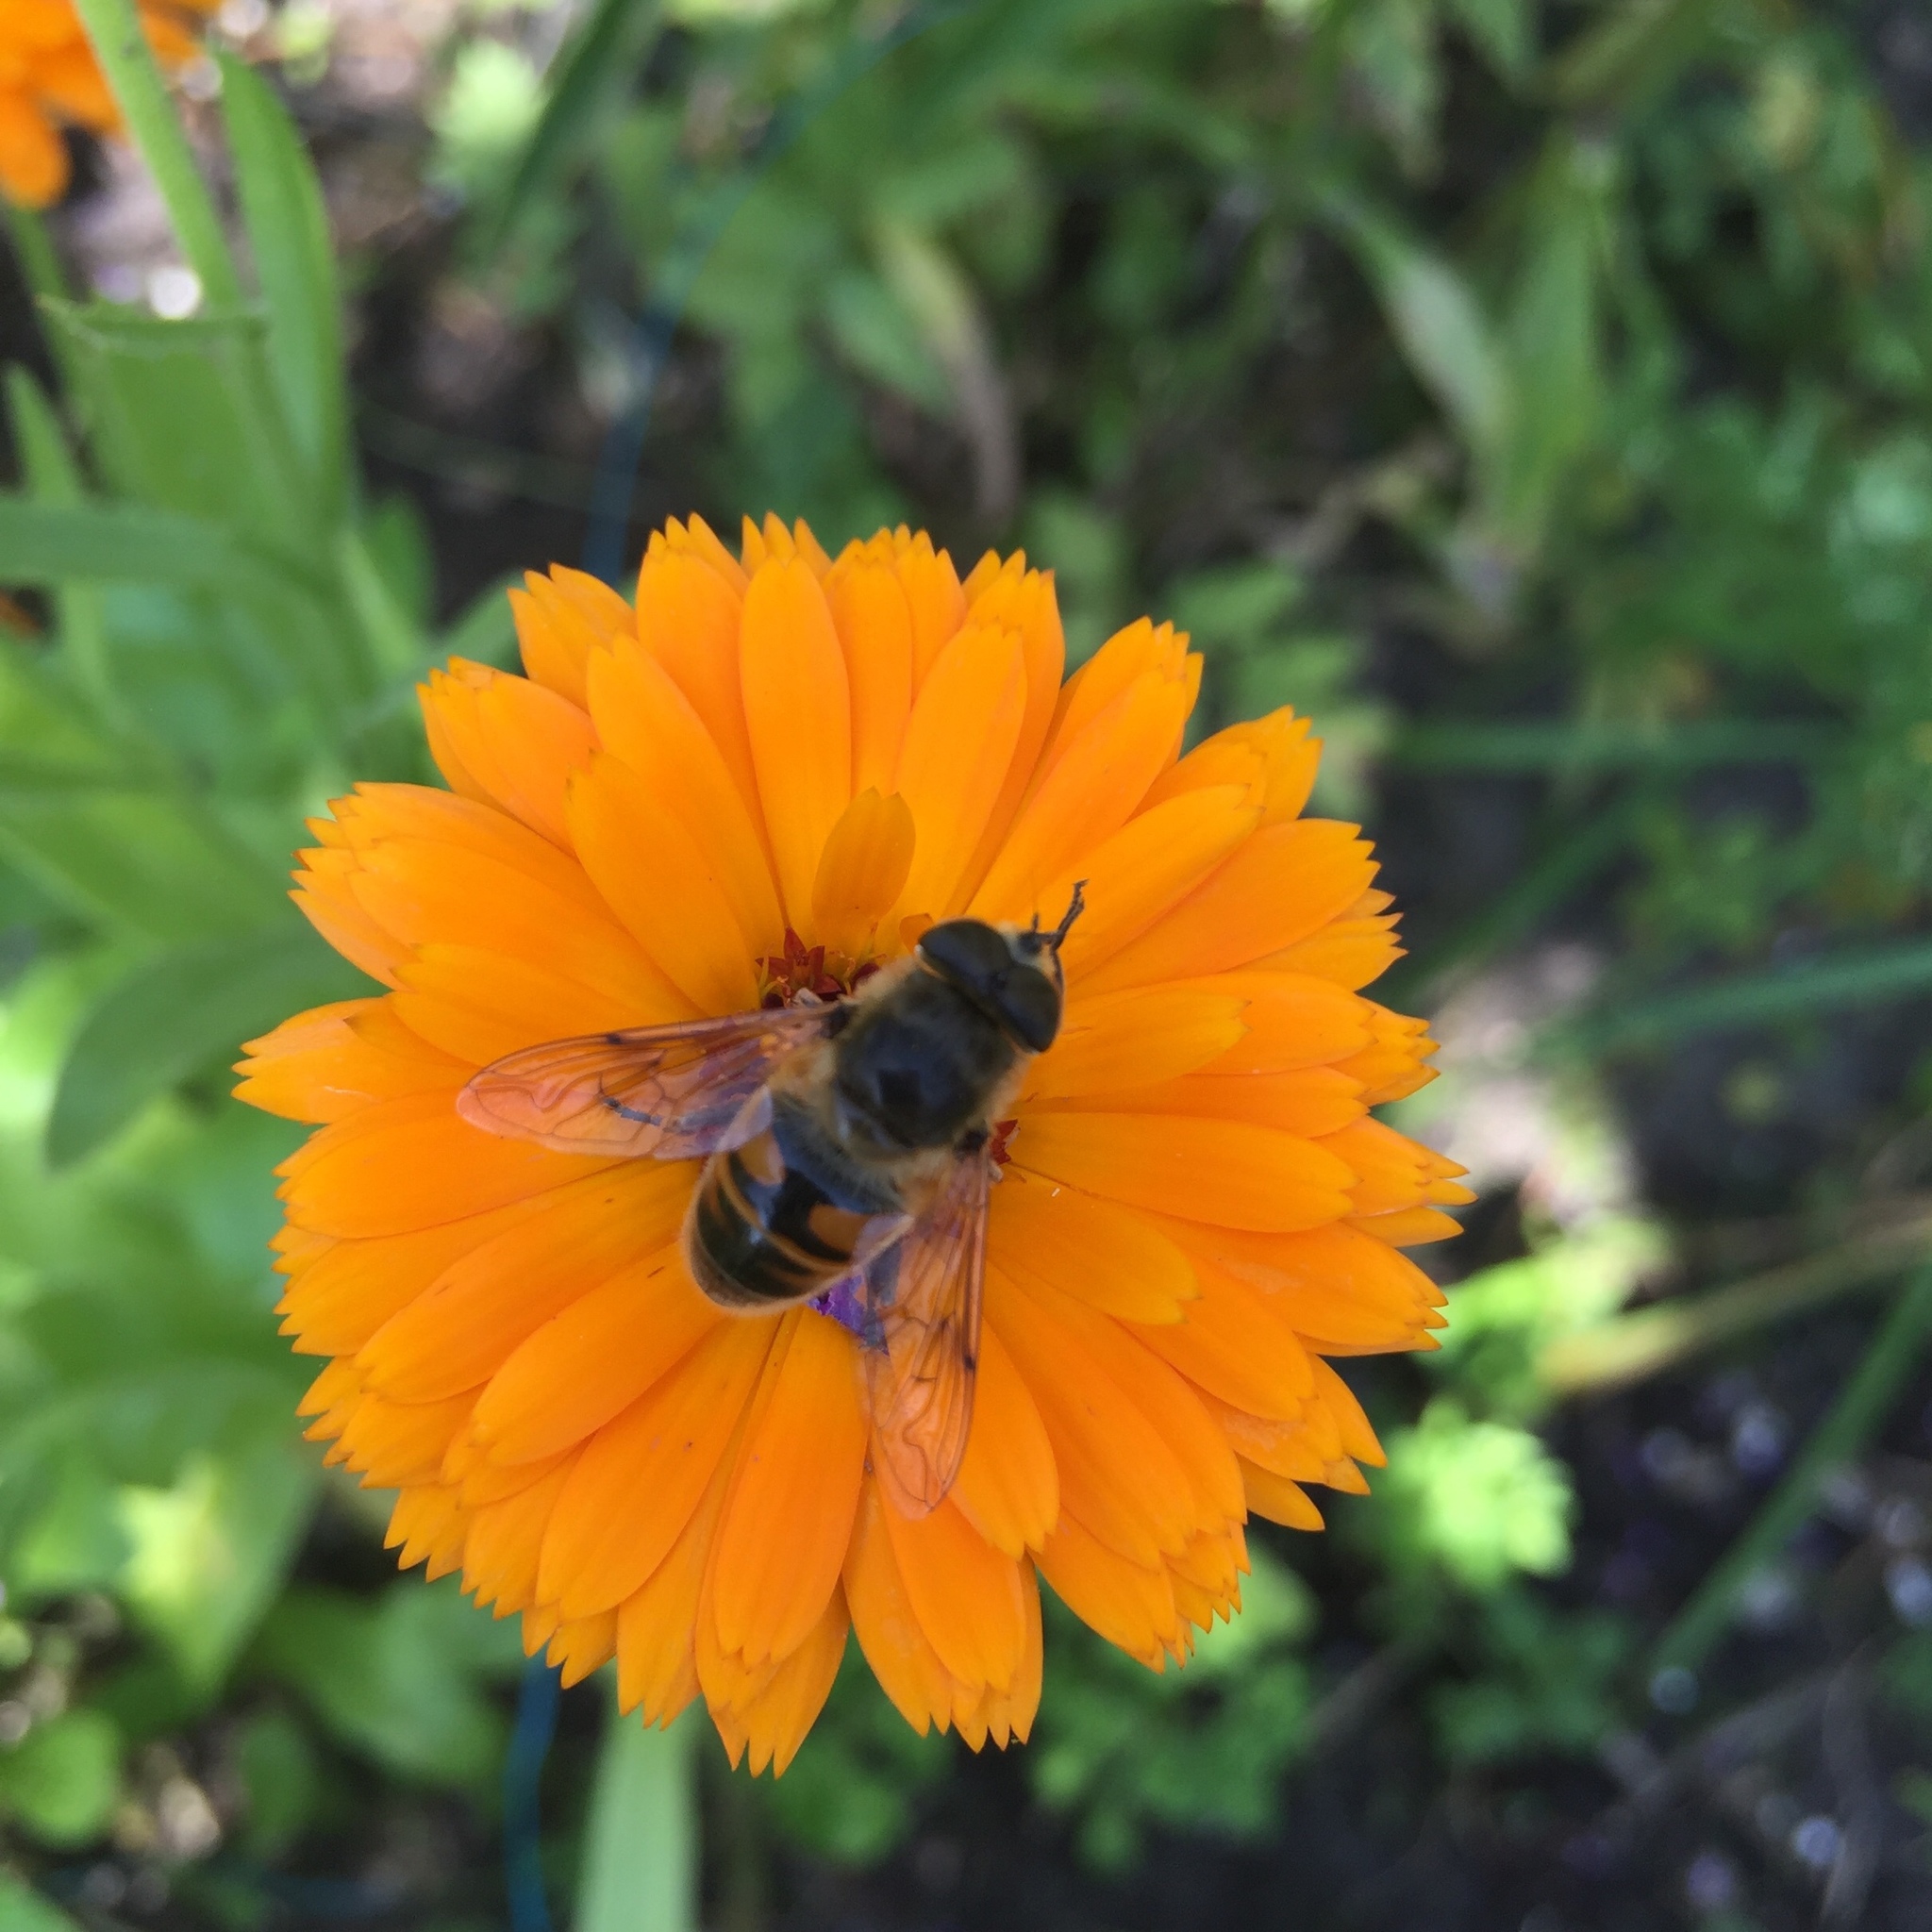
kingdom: Animalia
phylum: Arthropoda
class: Insecta
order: Diptera
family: Syrphidae
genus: Eristalis
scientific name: Eristalis tenax
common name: Drone fly
